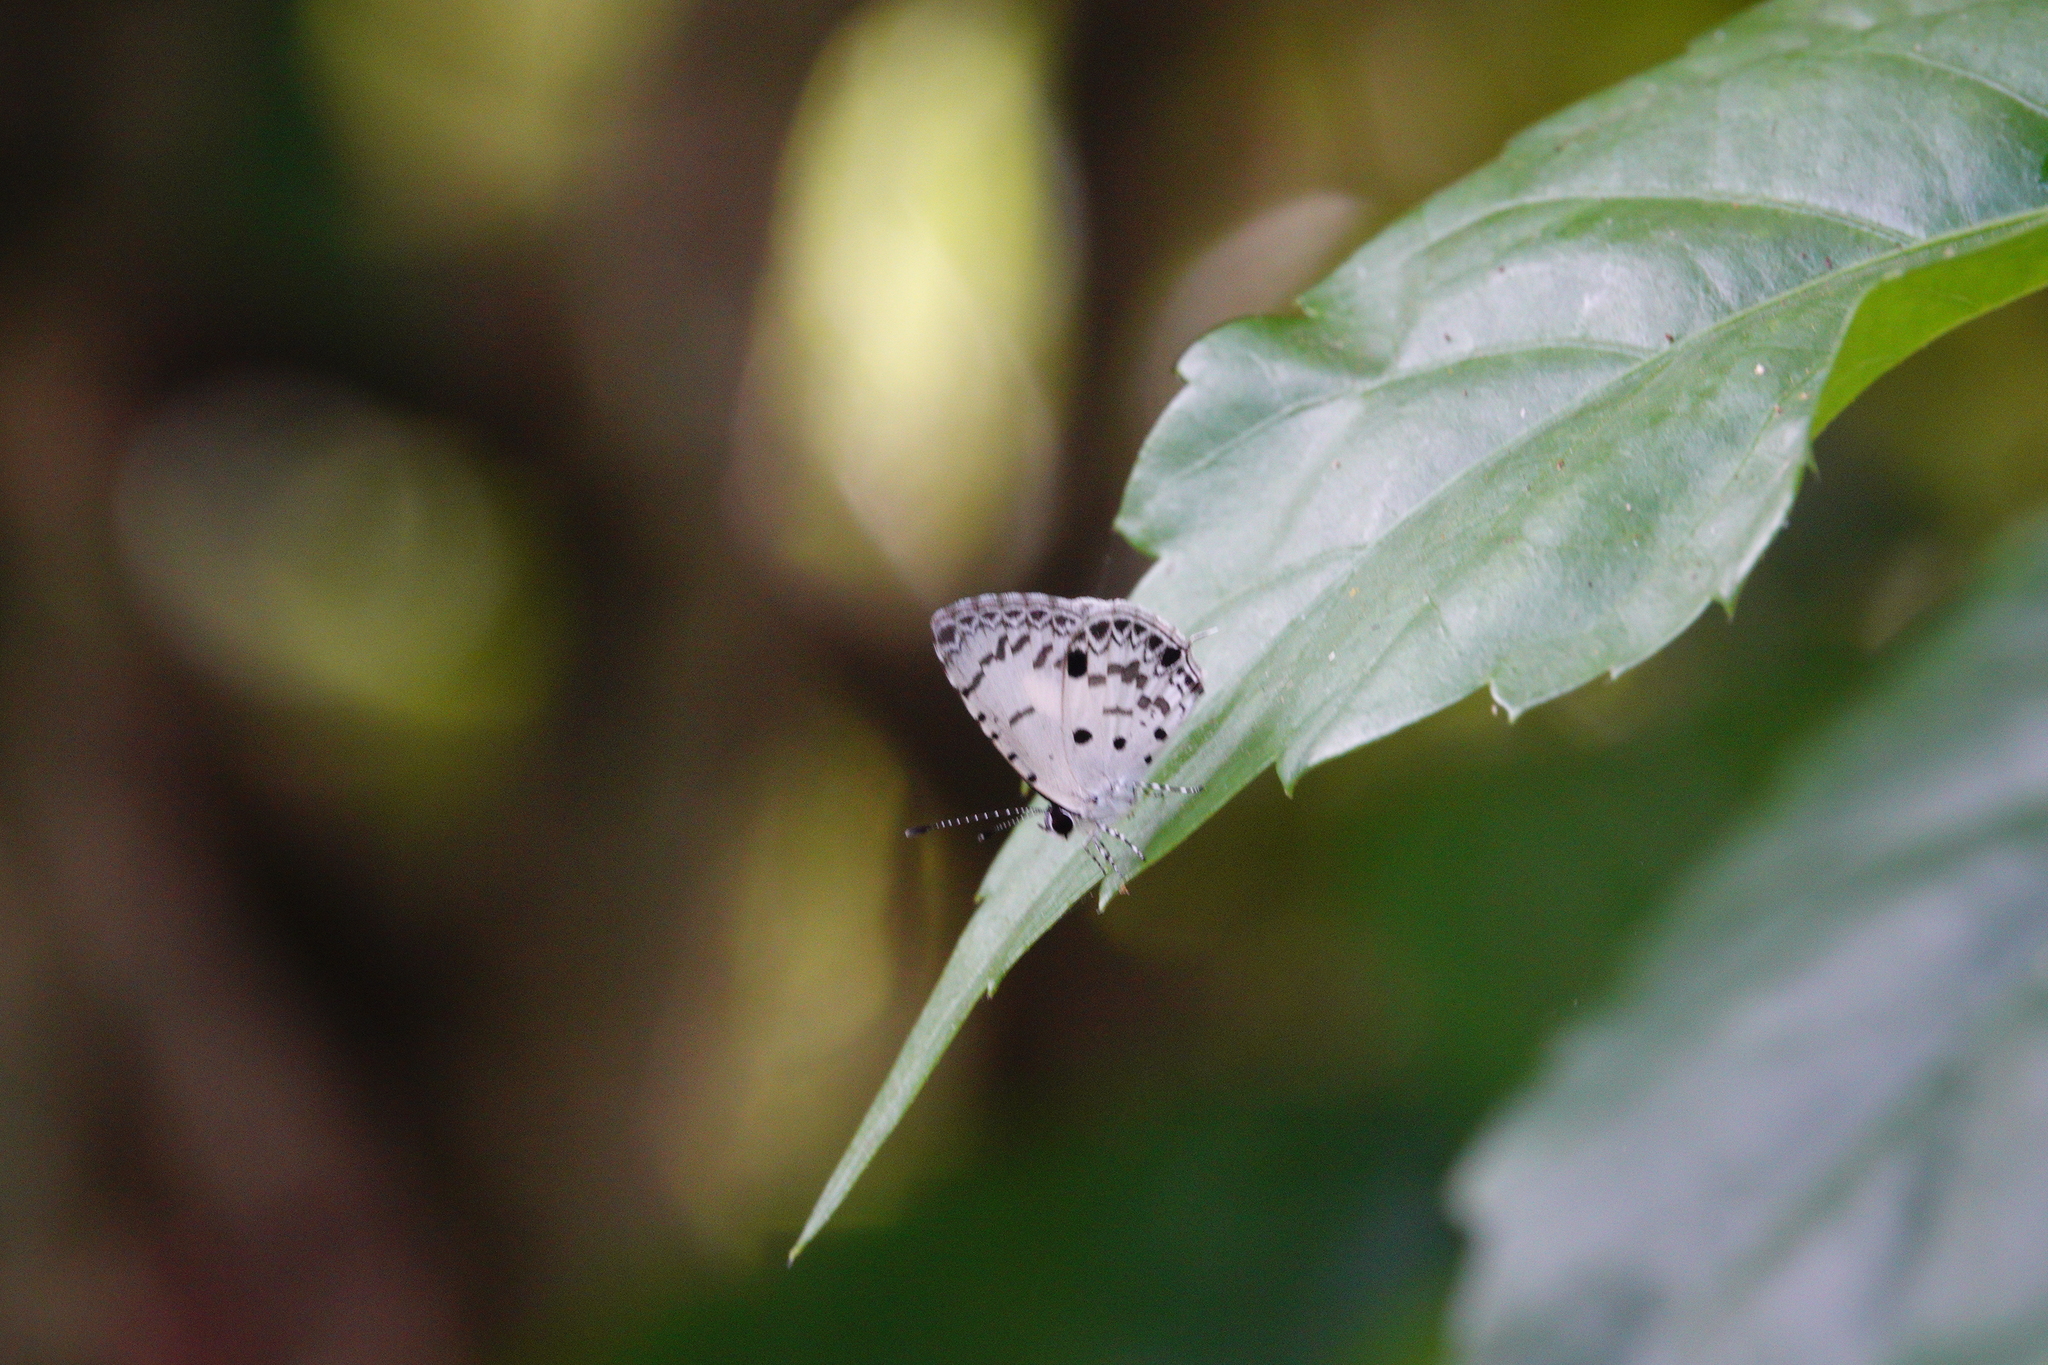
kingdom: Animalia
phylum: Arthropoda
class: Insecta
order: Lepidoptera
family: Lycaenidae
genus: Megisba
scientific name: Megisba malaya
